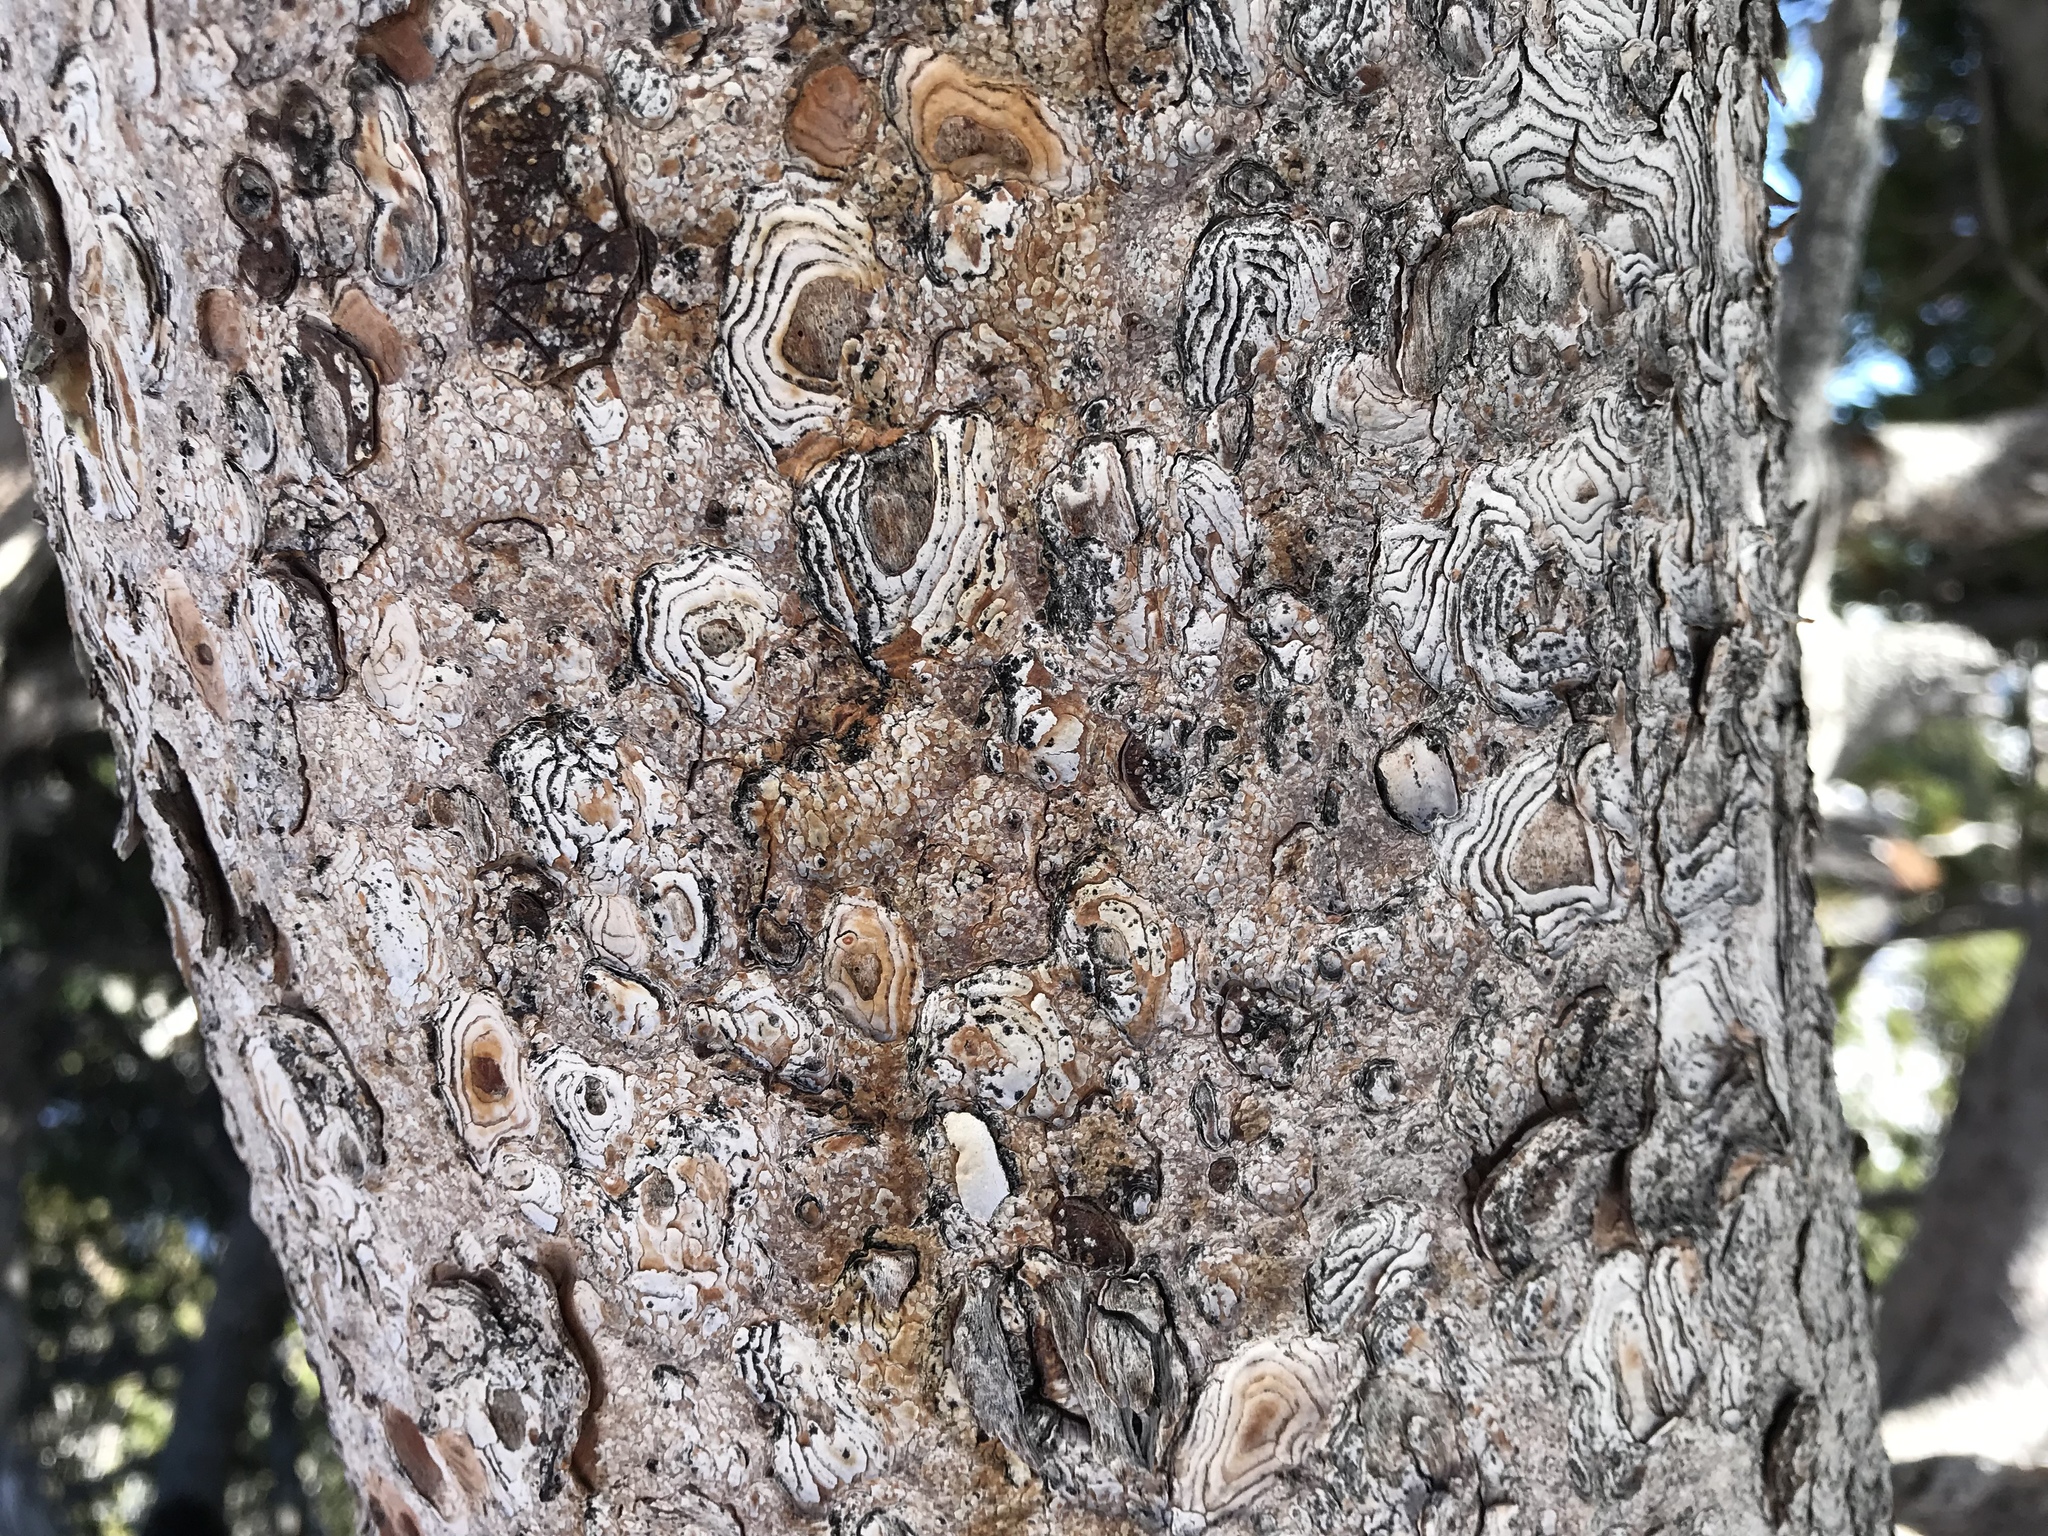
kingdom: Plantae
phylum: Tracheophyta
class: Pinopsida
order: Pinales
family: Pinaceae
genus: Pinus
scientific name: Pinus albicaulis
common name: Whitebark pine
